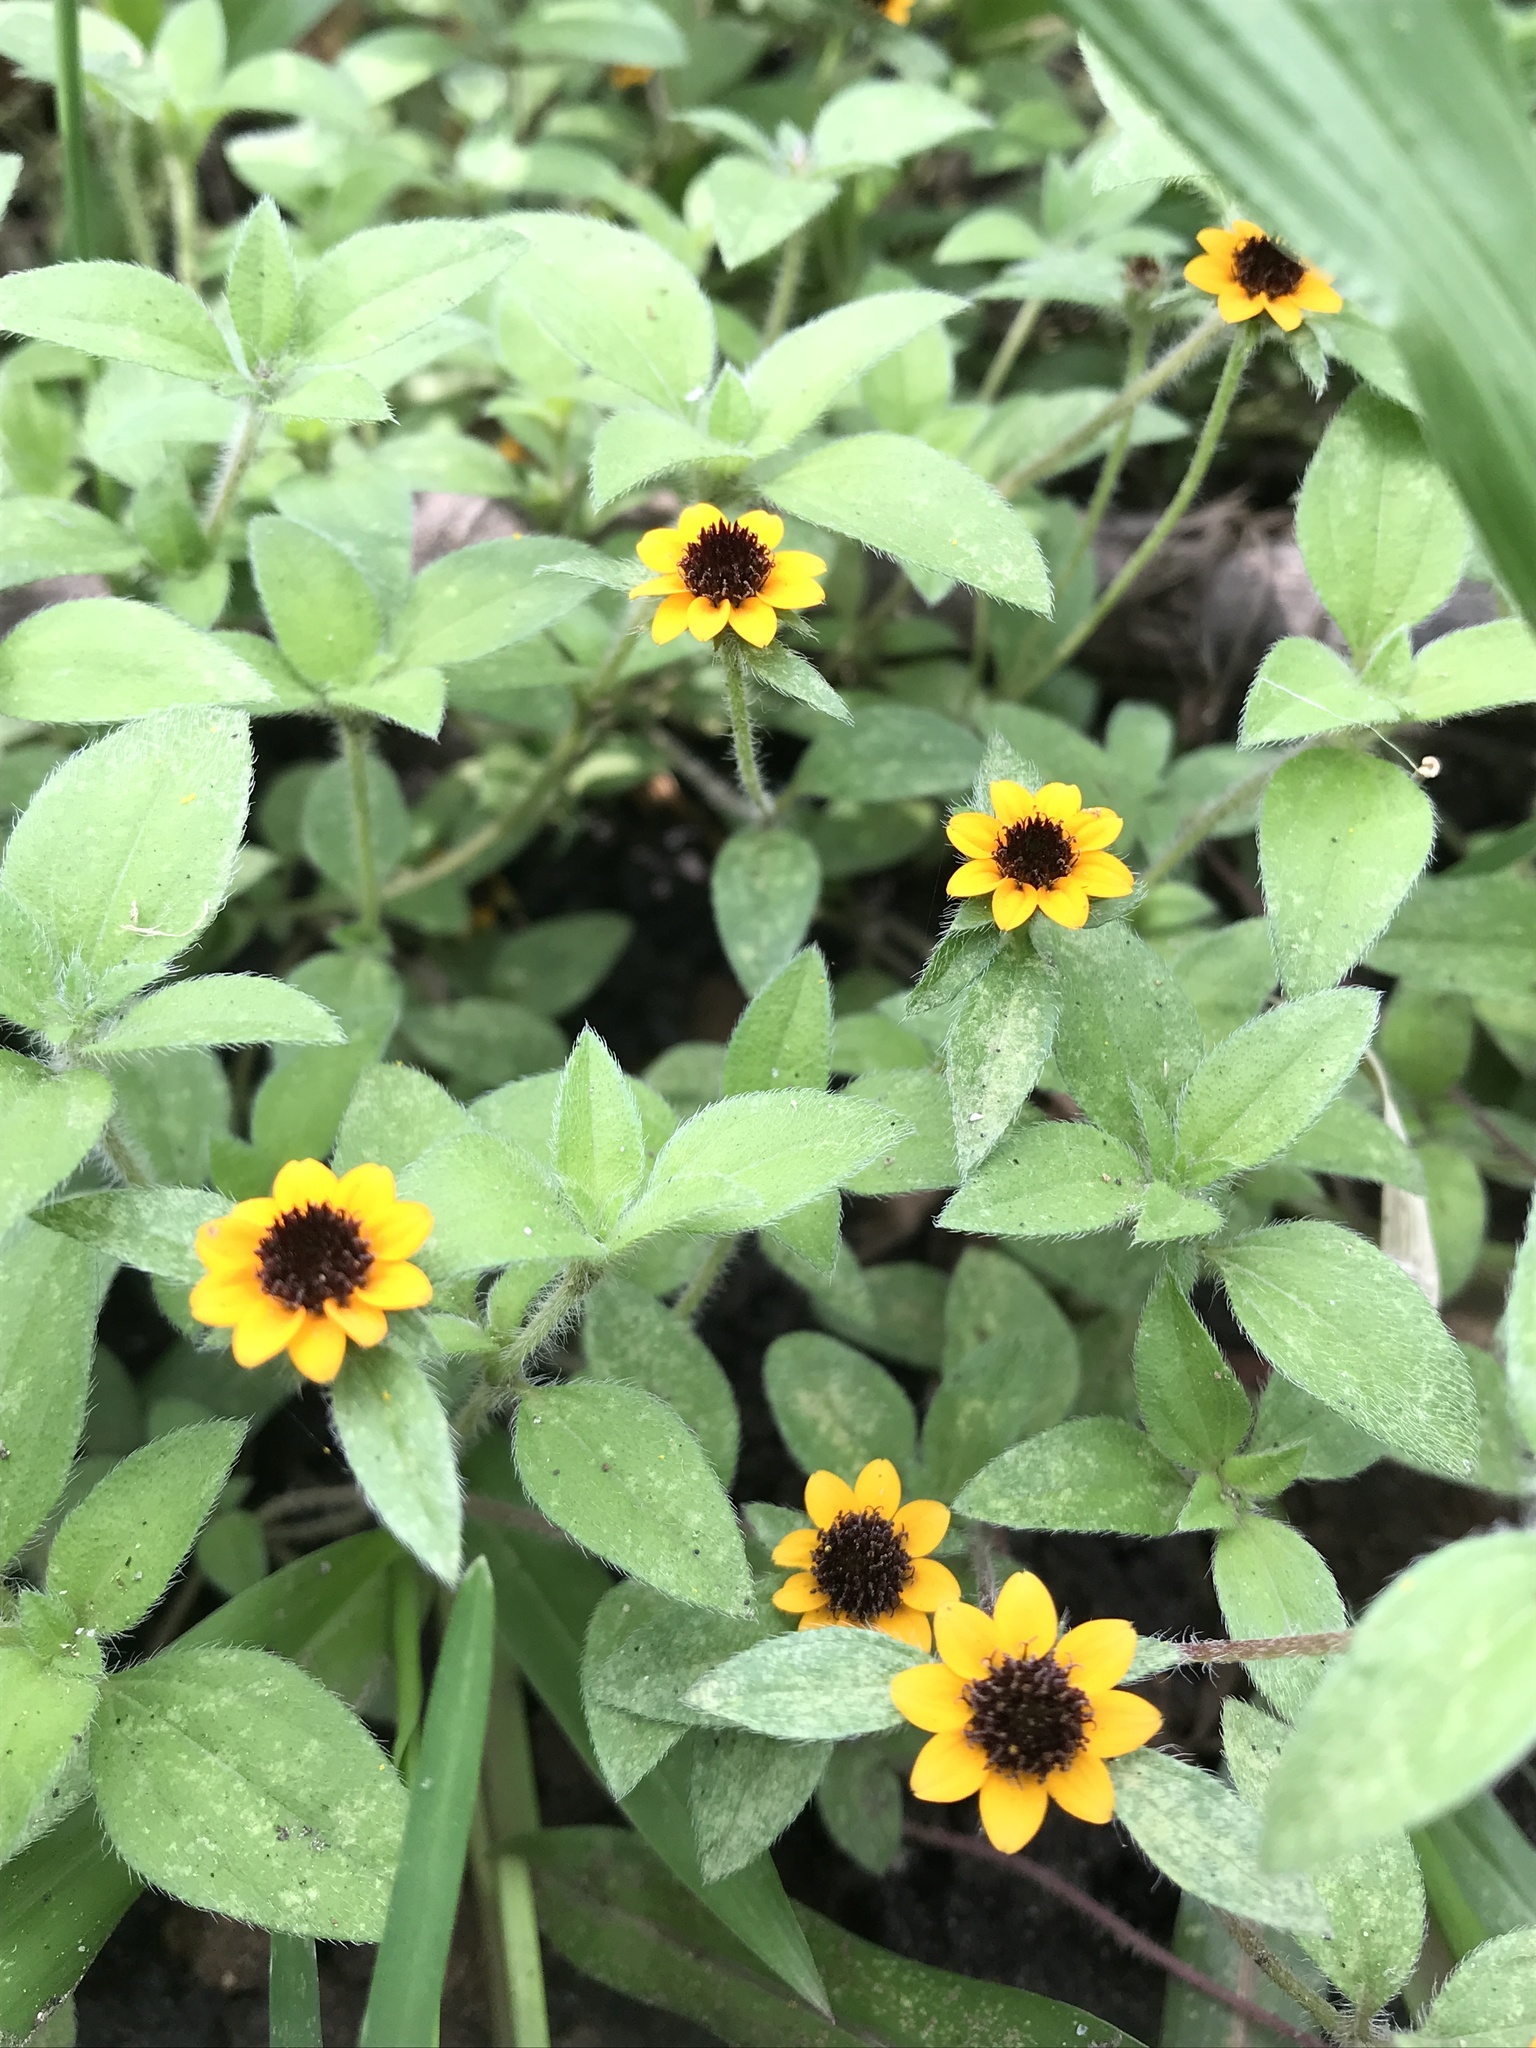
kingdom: Plantae
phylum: Tracheophyta
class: Magnoliopsida
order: Asterales
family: Asteraceae
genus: Sanvitalia
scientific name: Sanvitalia procumbens
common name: Mexican creeping zinnia
